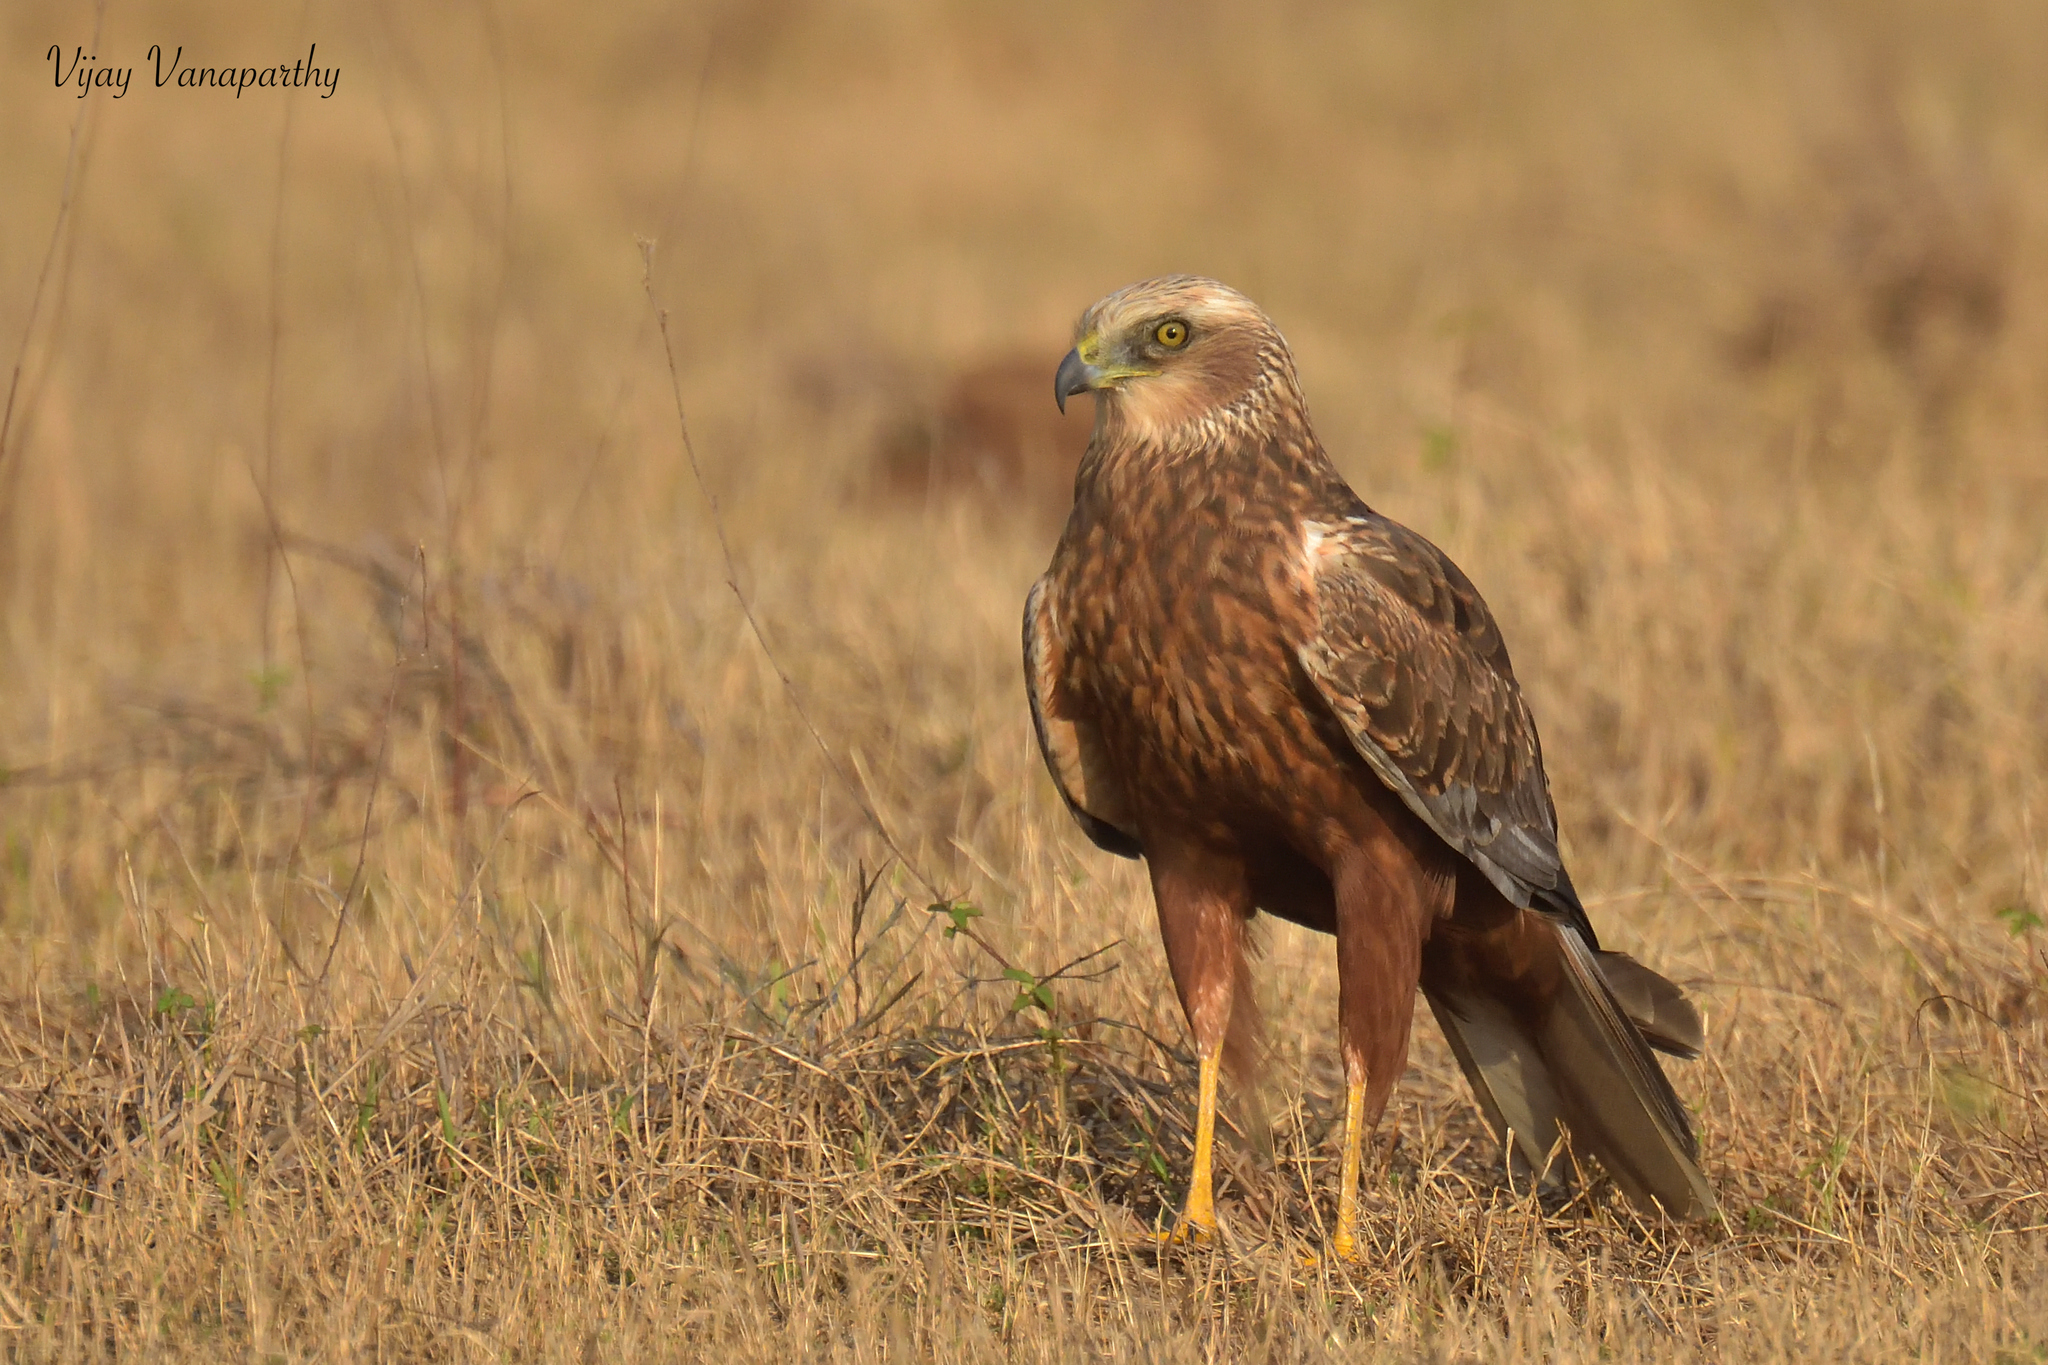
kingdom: Animalia
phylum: Chordata
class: Aves
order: Accipitriformes
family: Accipitridae
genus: Circus
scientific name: Circus aeruginosus
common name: Western marsh harrier
